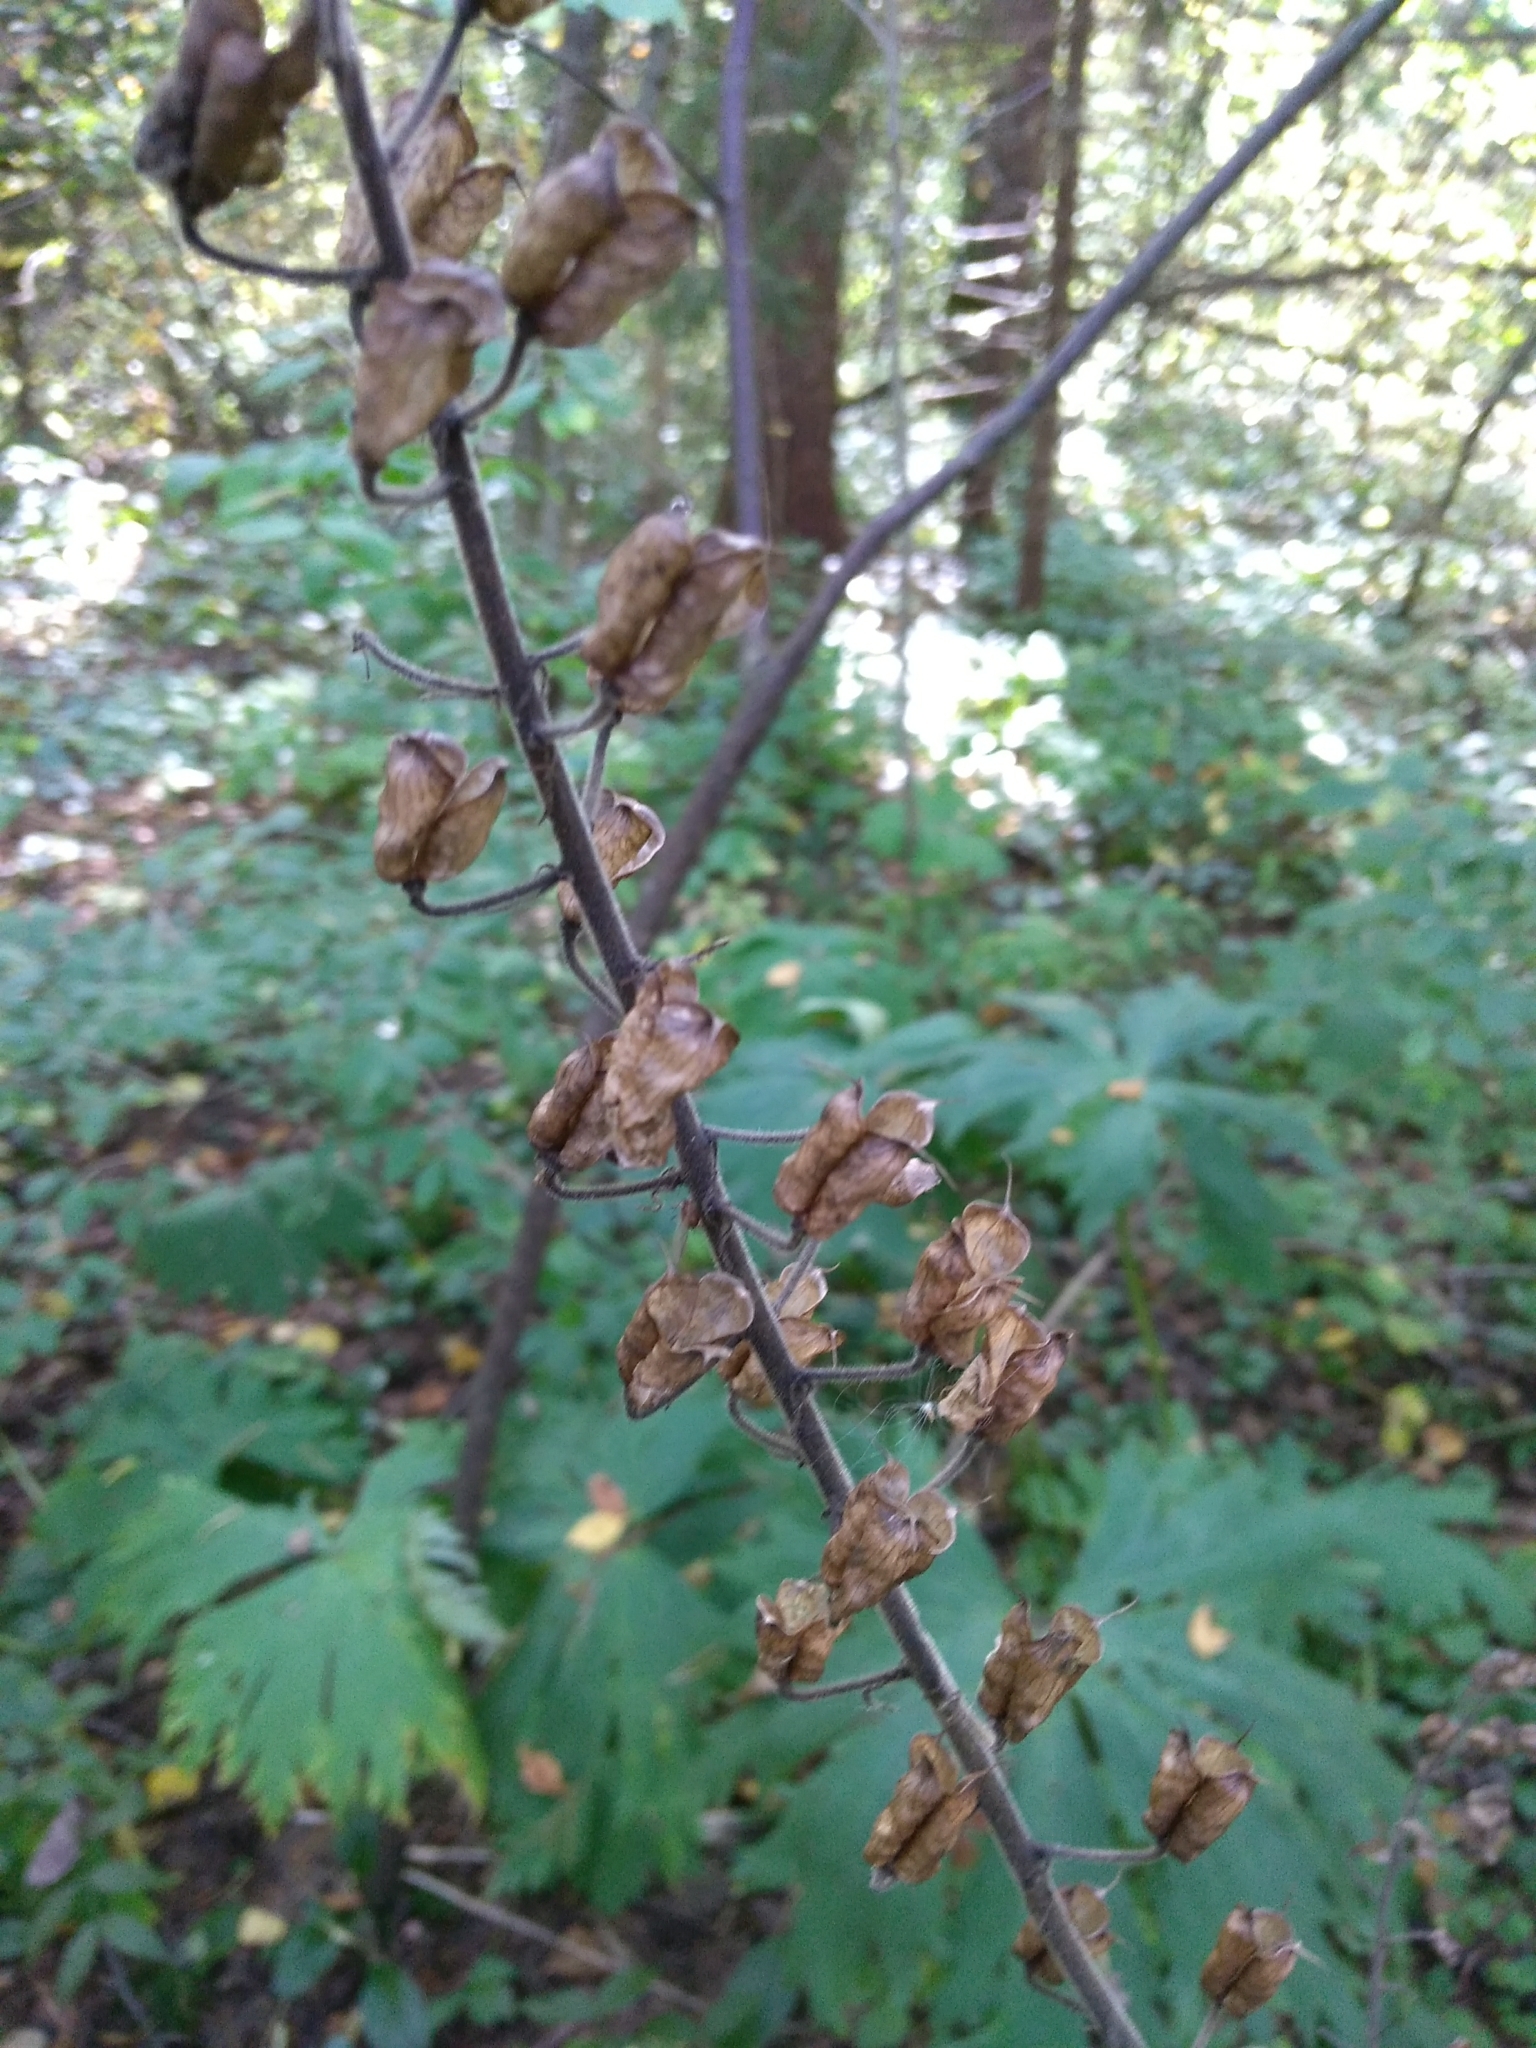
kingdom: Plantae
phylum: Tracheophyta
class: Magnoliopsida
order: Ranunculales
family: Ranunculaceae
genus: Aconitum
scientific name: Aconitum septentrionale
